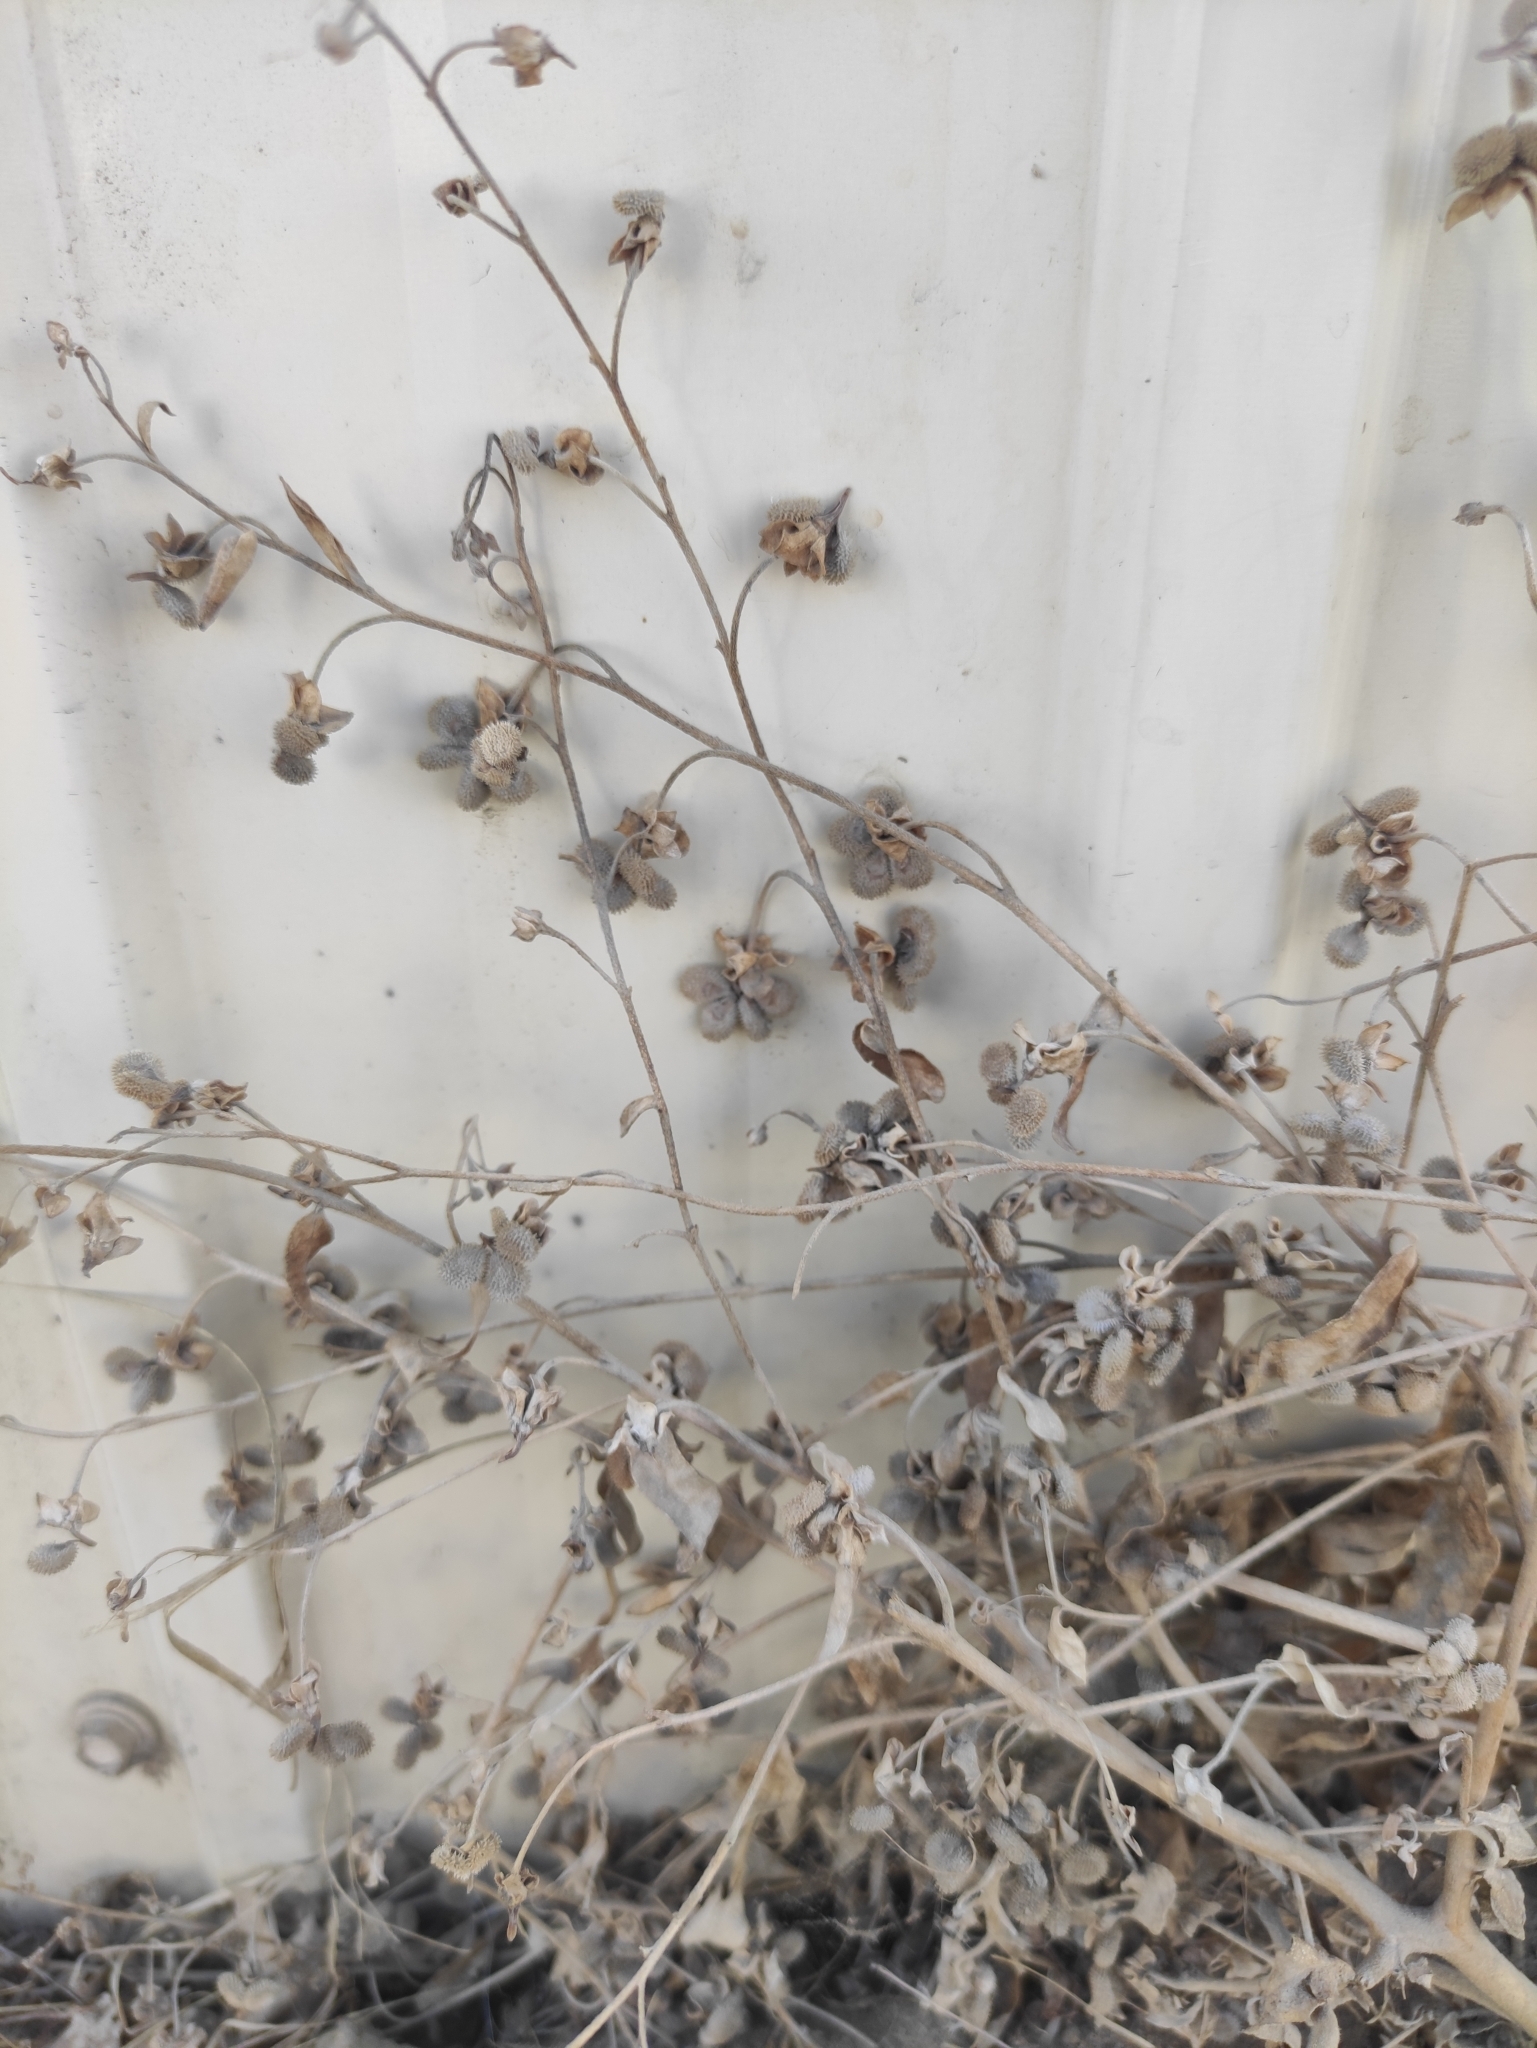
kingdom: Plantae
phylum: Tracheophyta
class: Magnoliopsida
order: Boraginales
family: Boraginaceae
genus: Cynoglossum
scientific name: Cynoglossum divaricatum
